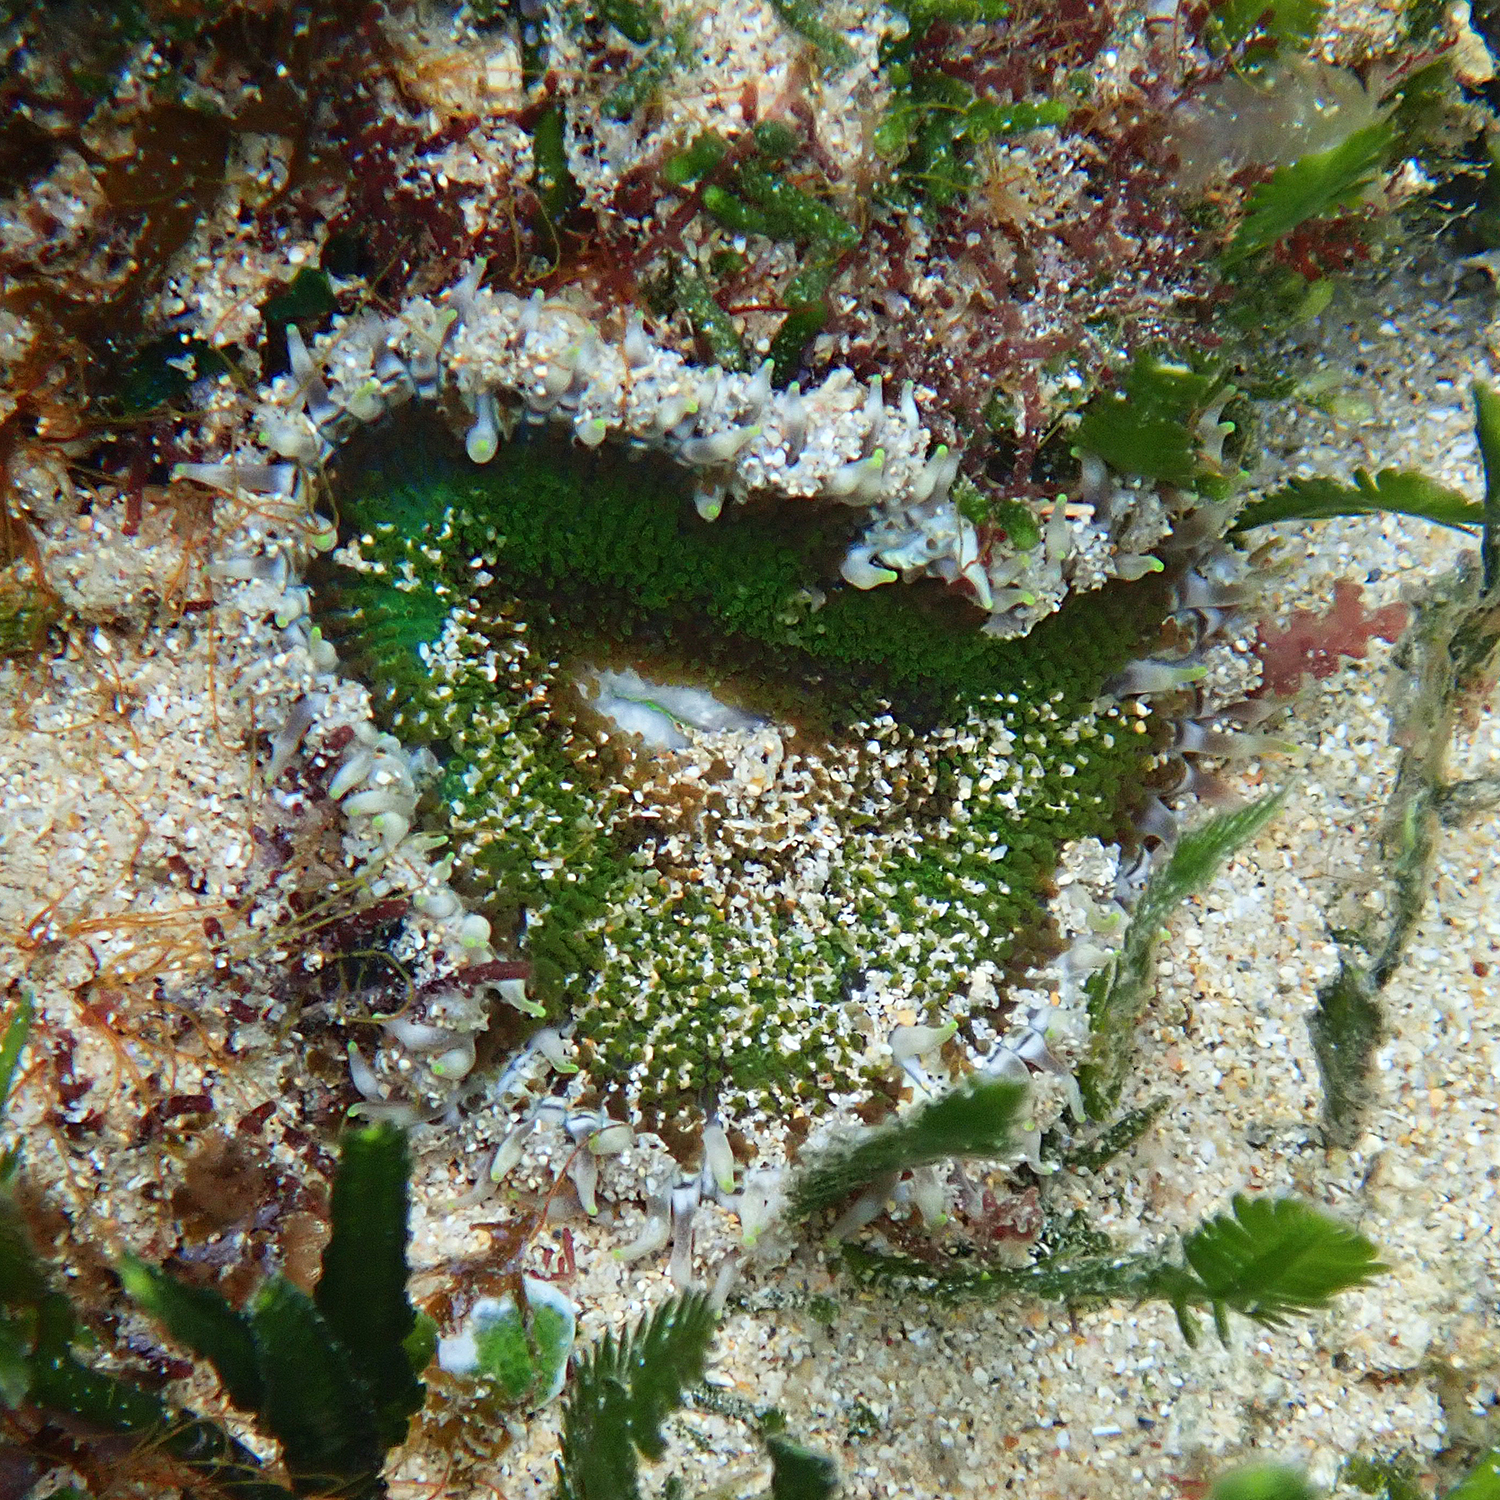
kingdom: Animalia
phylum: Cnidaria
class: Anthozoa
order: Actiniaria
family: Heteranthidae
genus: Heteranthus
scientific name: Heteranthus verruculatus
